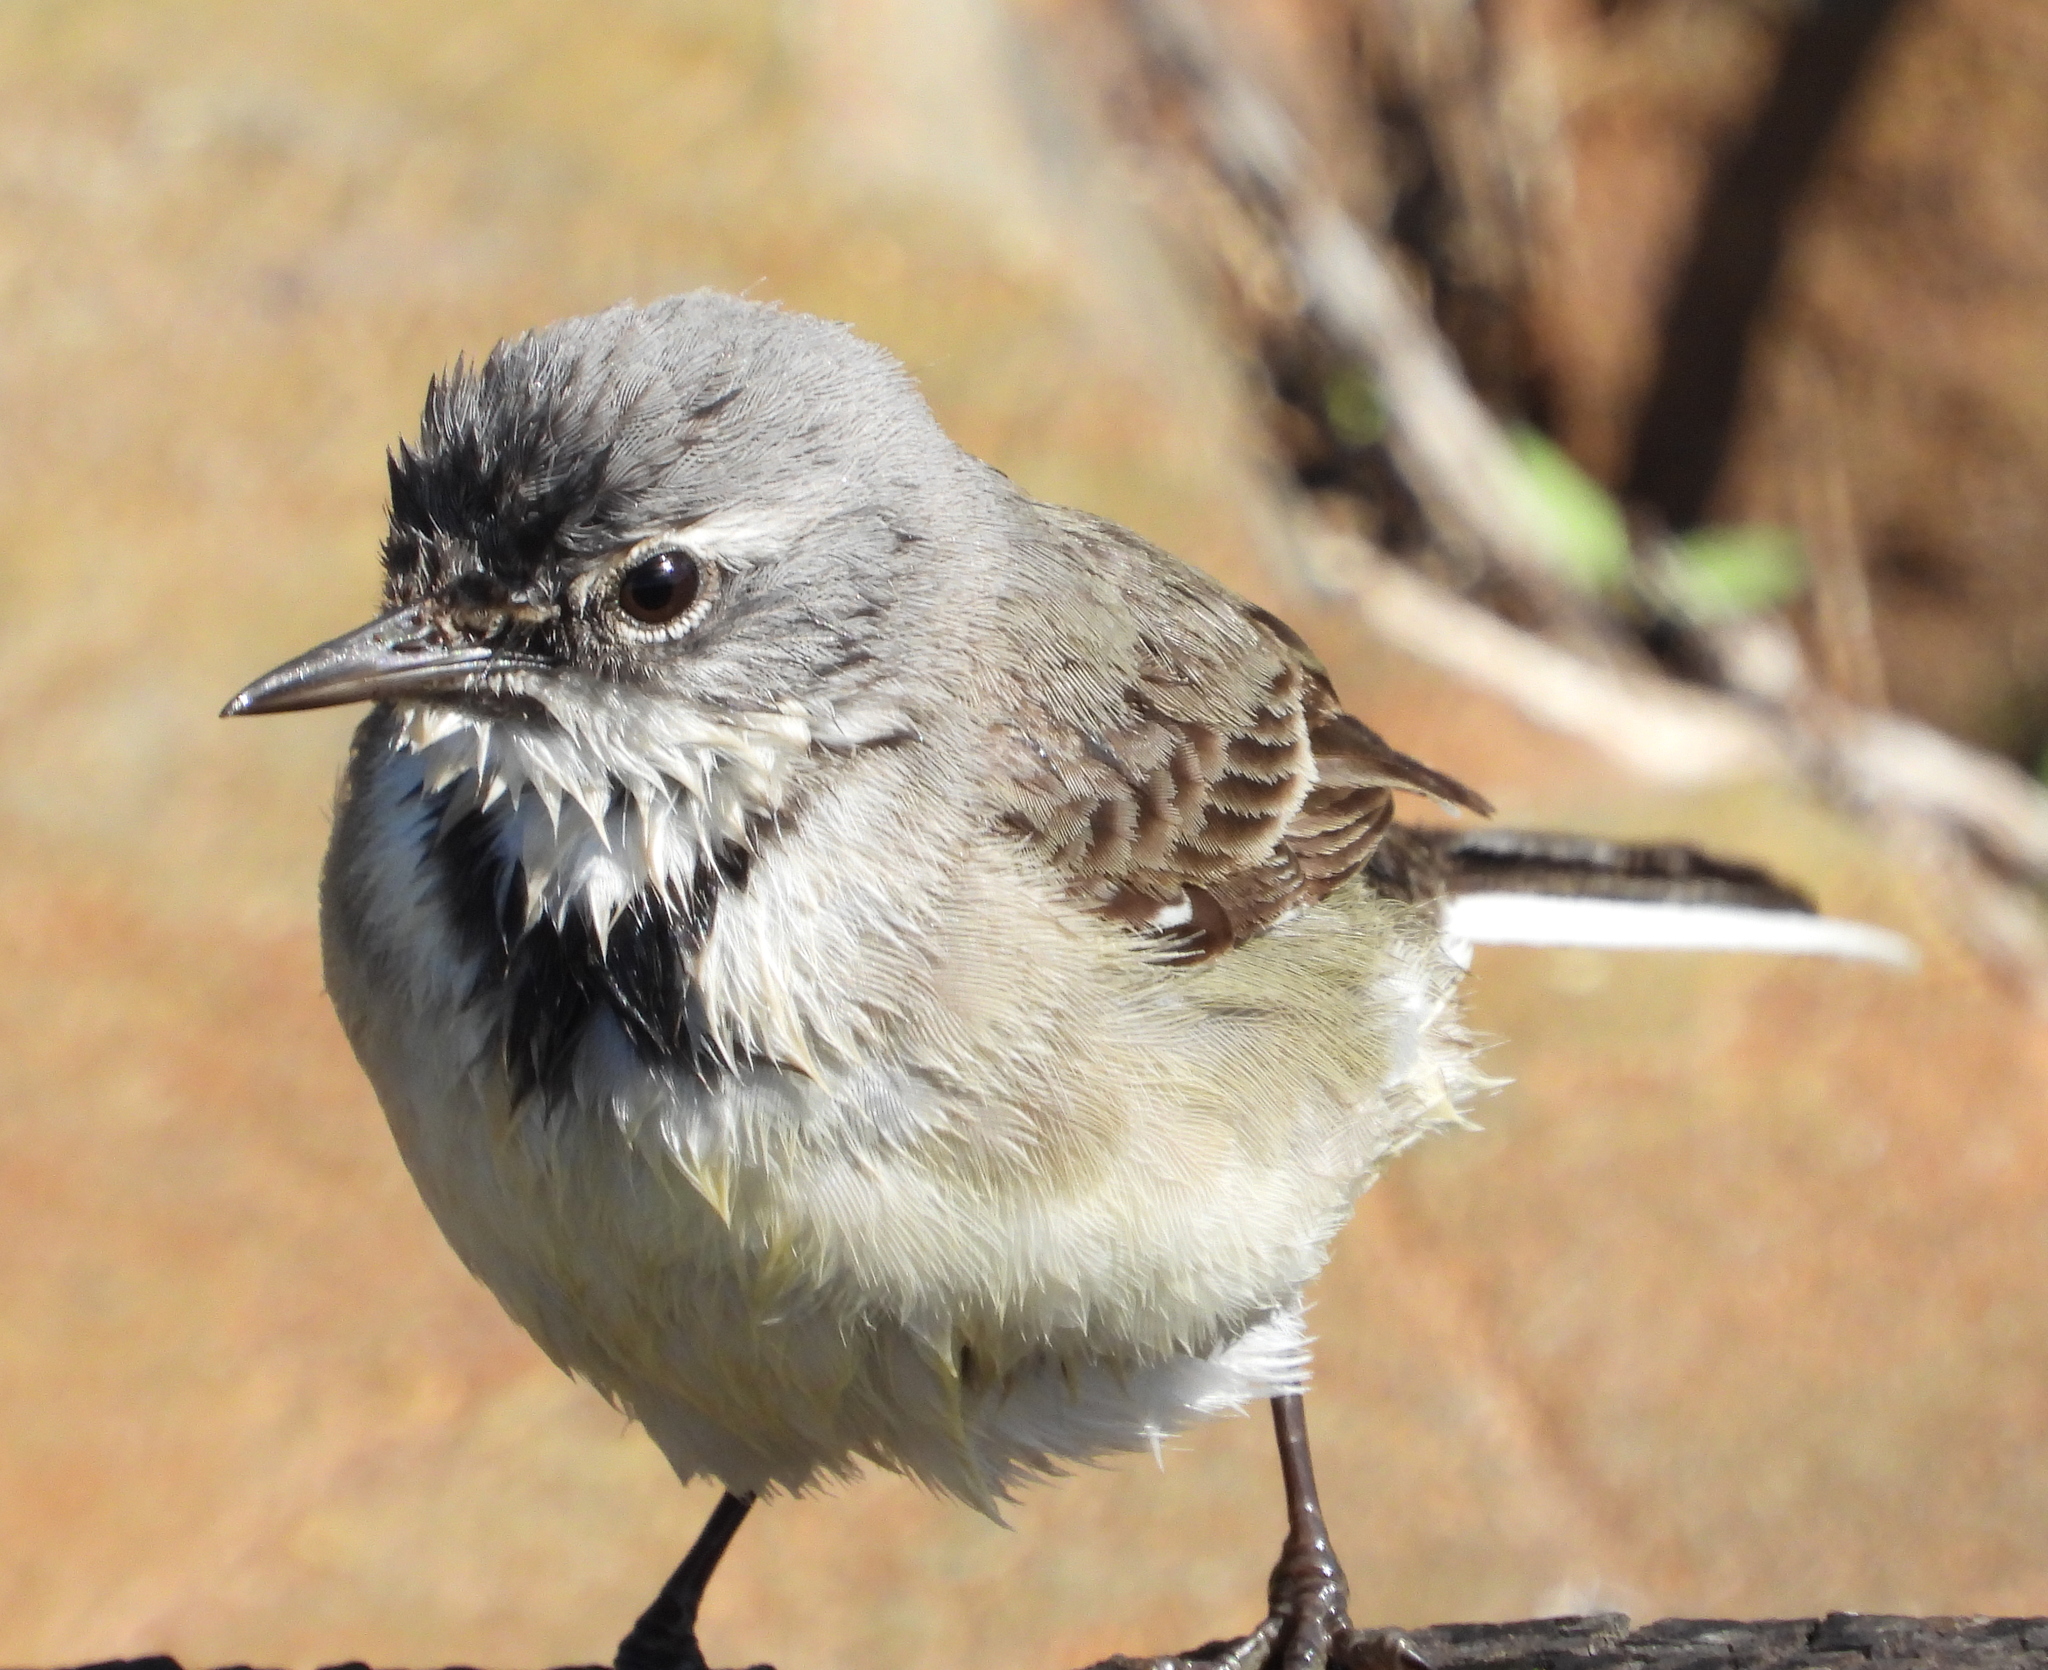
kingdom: Animalia
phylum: Chordata
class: Aves
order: Passeriformes
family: Motacillidae
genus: Motacilla
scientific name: Motacilla capensis
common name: Cape wagtail
